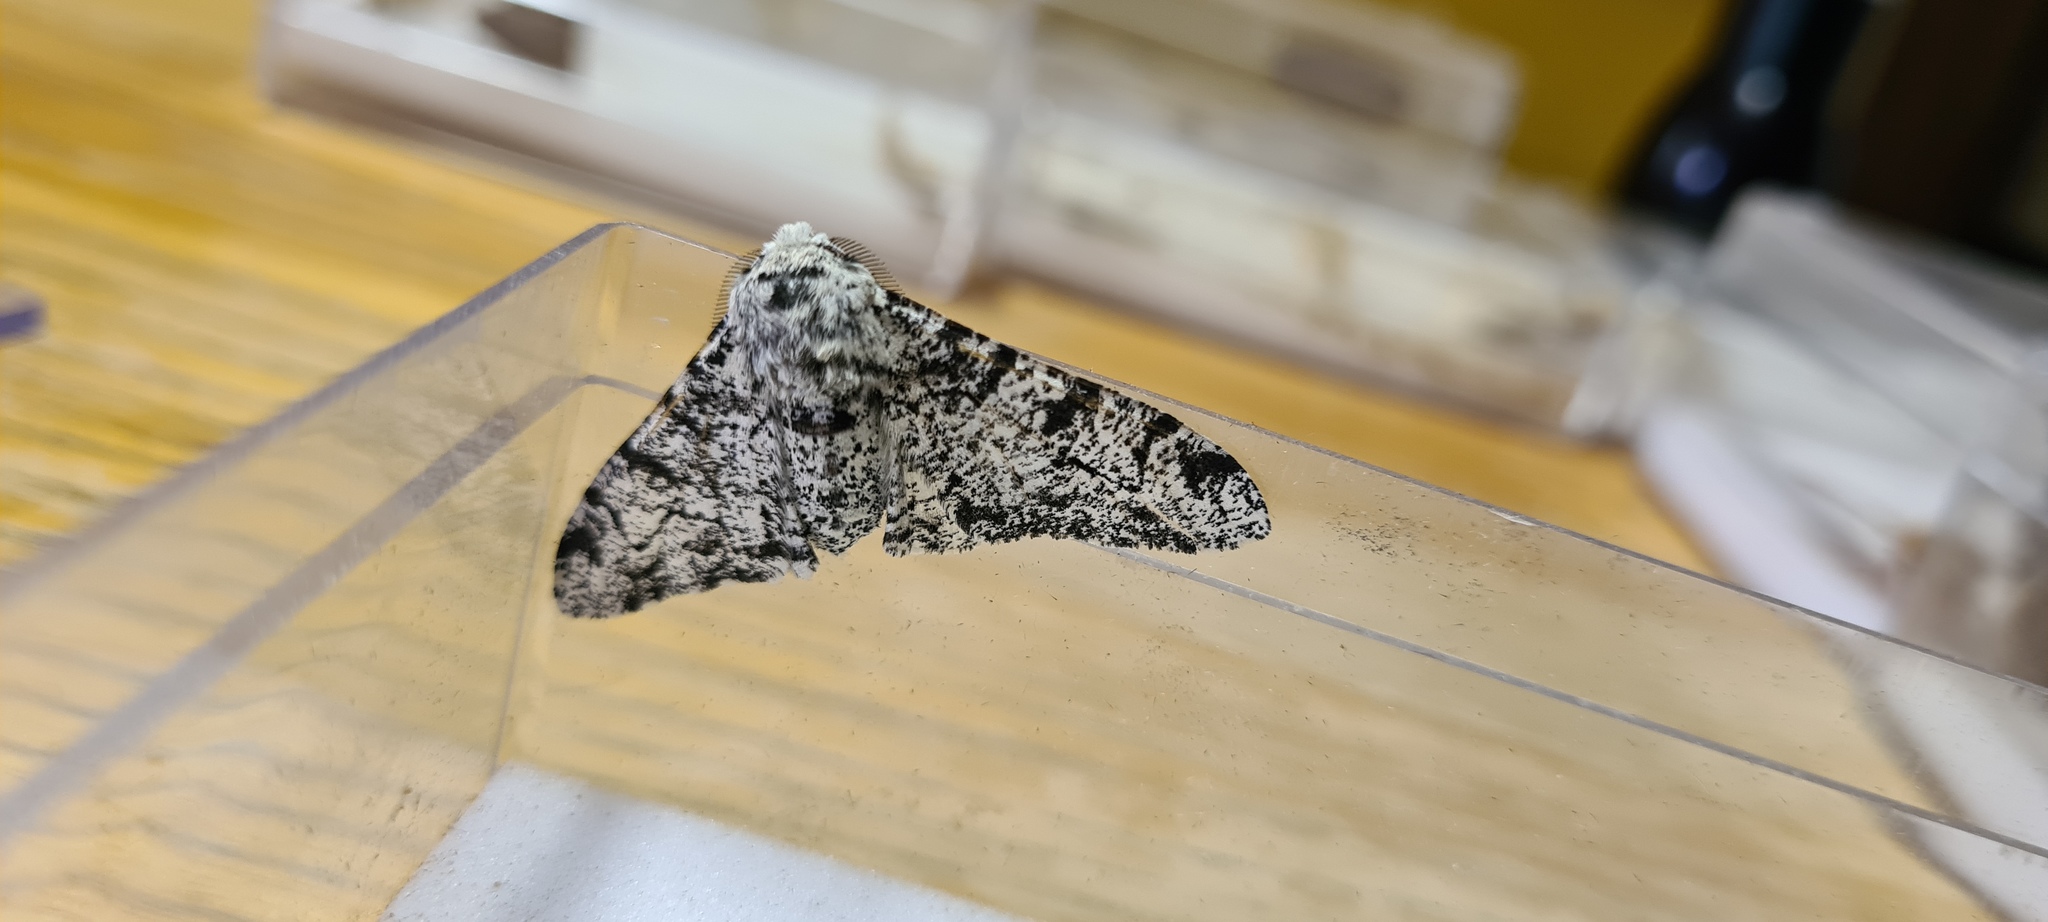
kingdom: Animalia
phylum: Arthropoda
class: Insecta
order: Lepidoptera
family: Geometridae
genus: Biston
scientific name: Biston betularia
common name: Peppered moth
